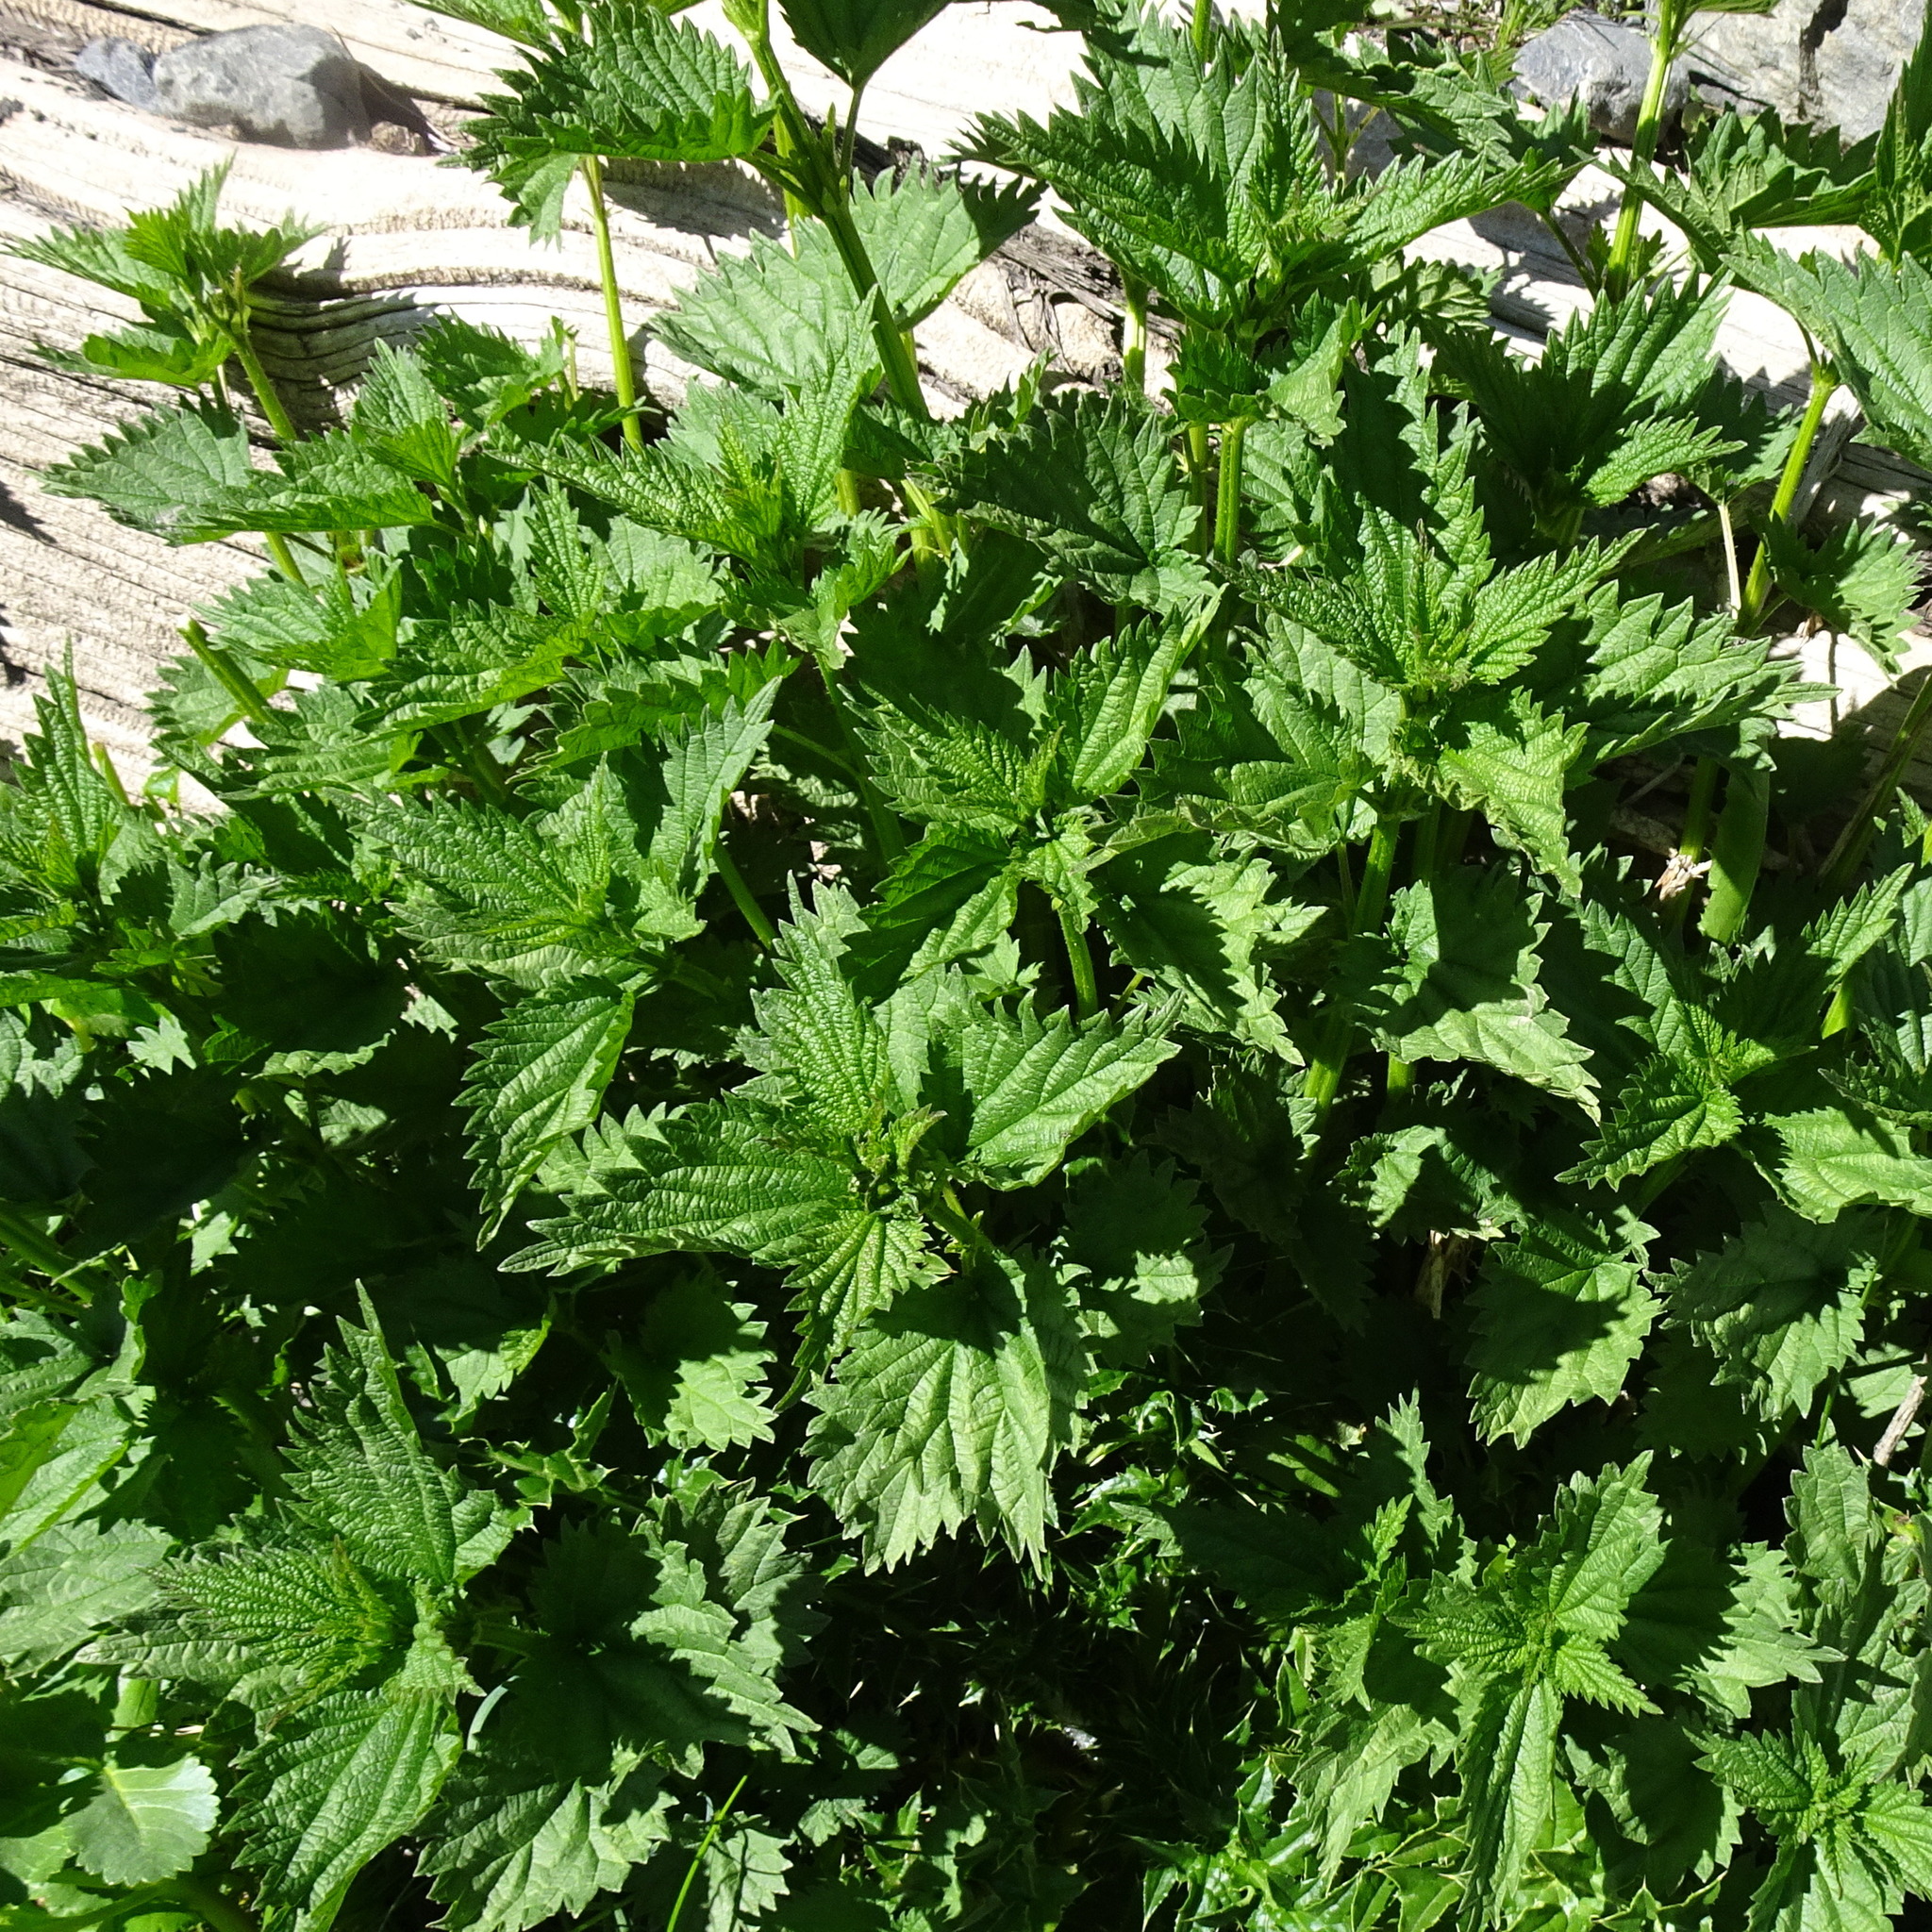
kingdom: Plantae
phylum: Tracheophyta
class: Magnoliopsida
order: Rosales
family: Urticaceae
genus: Urtica
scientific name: Urtica dioica
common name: Common nettle
